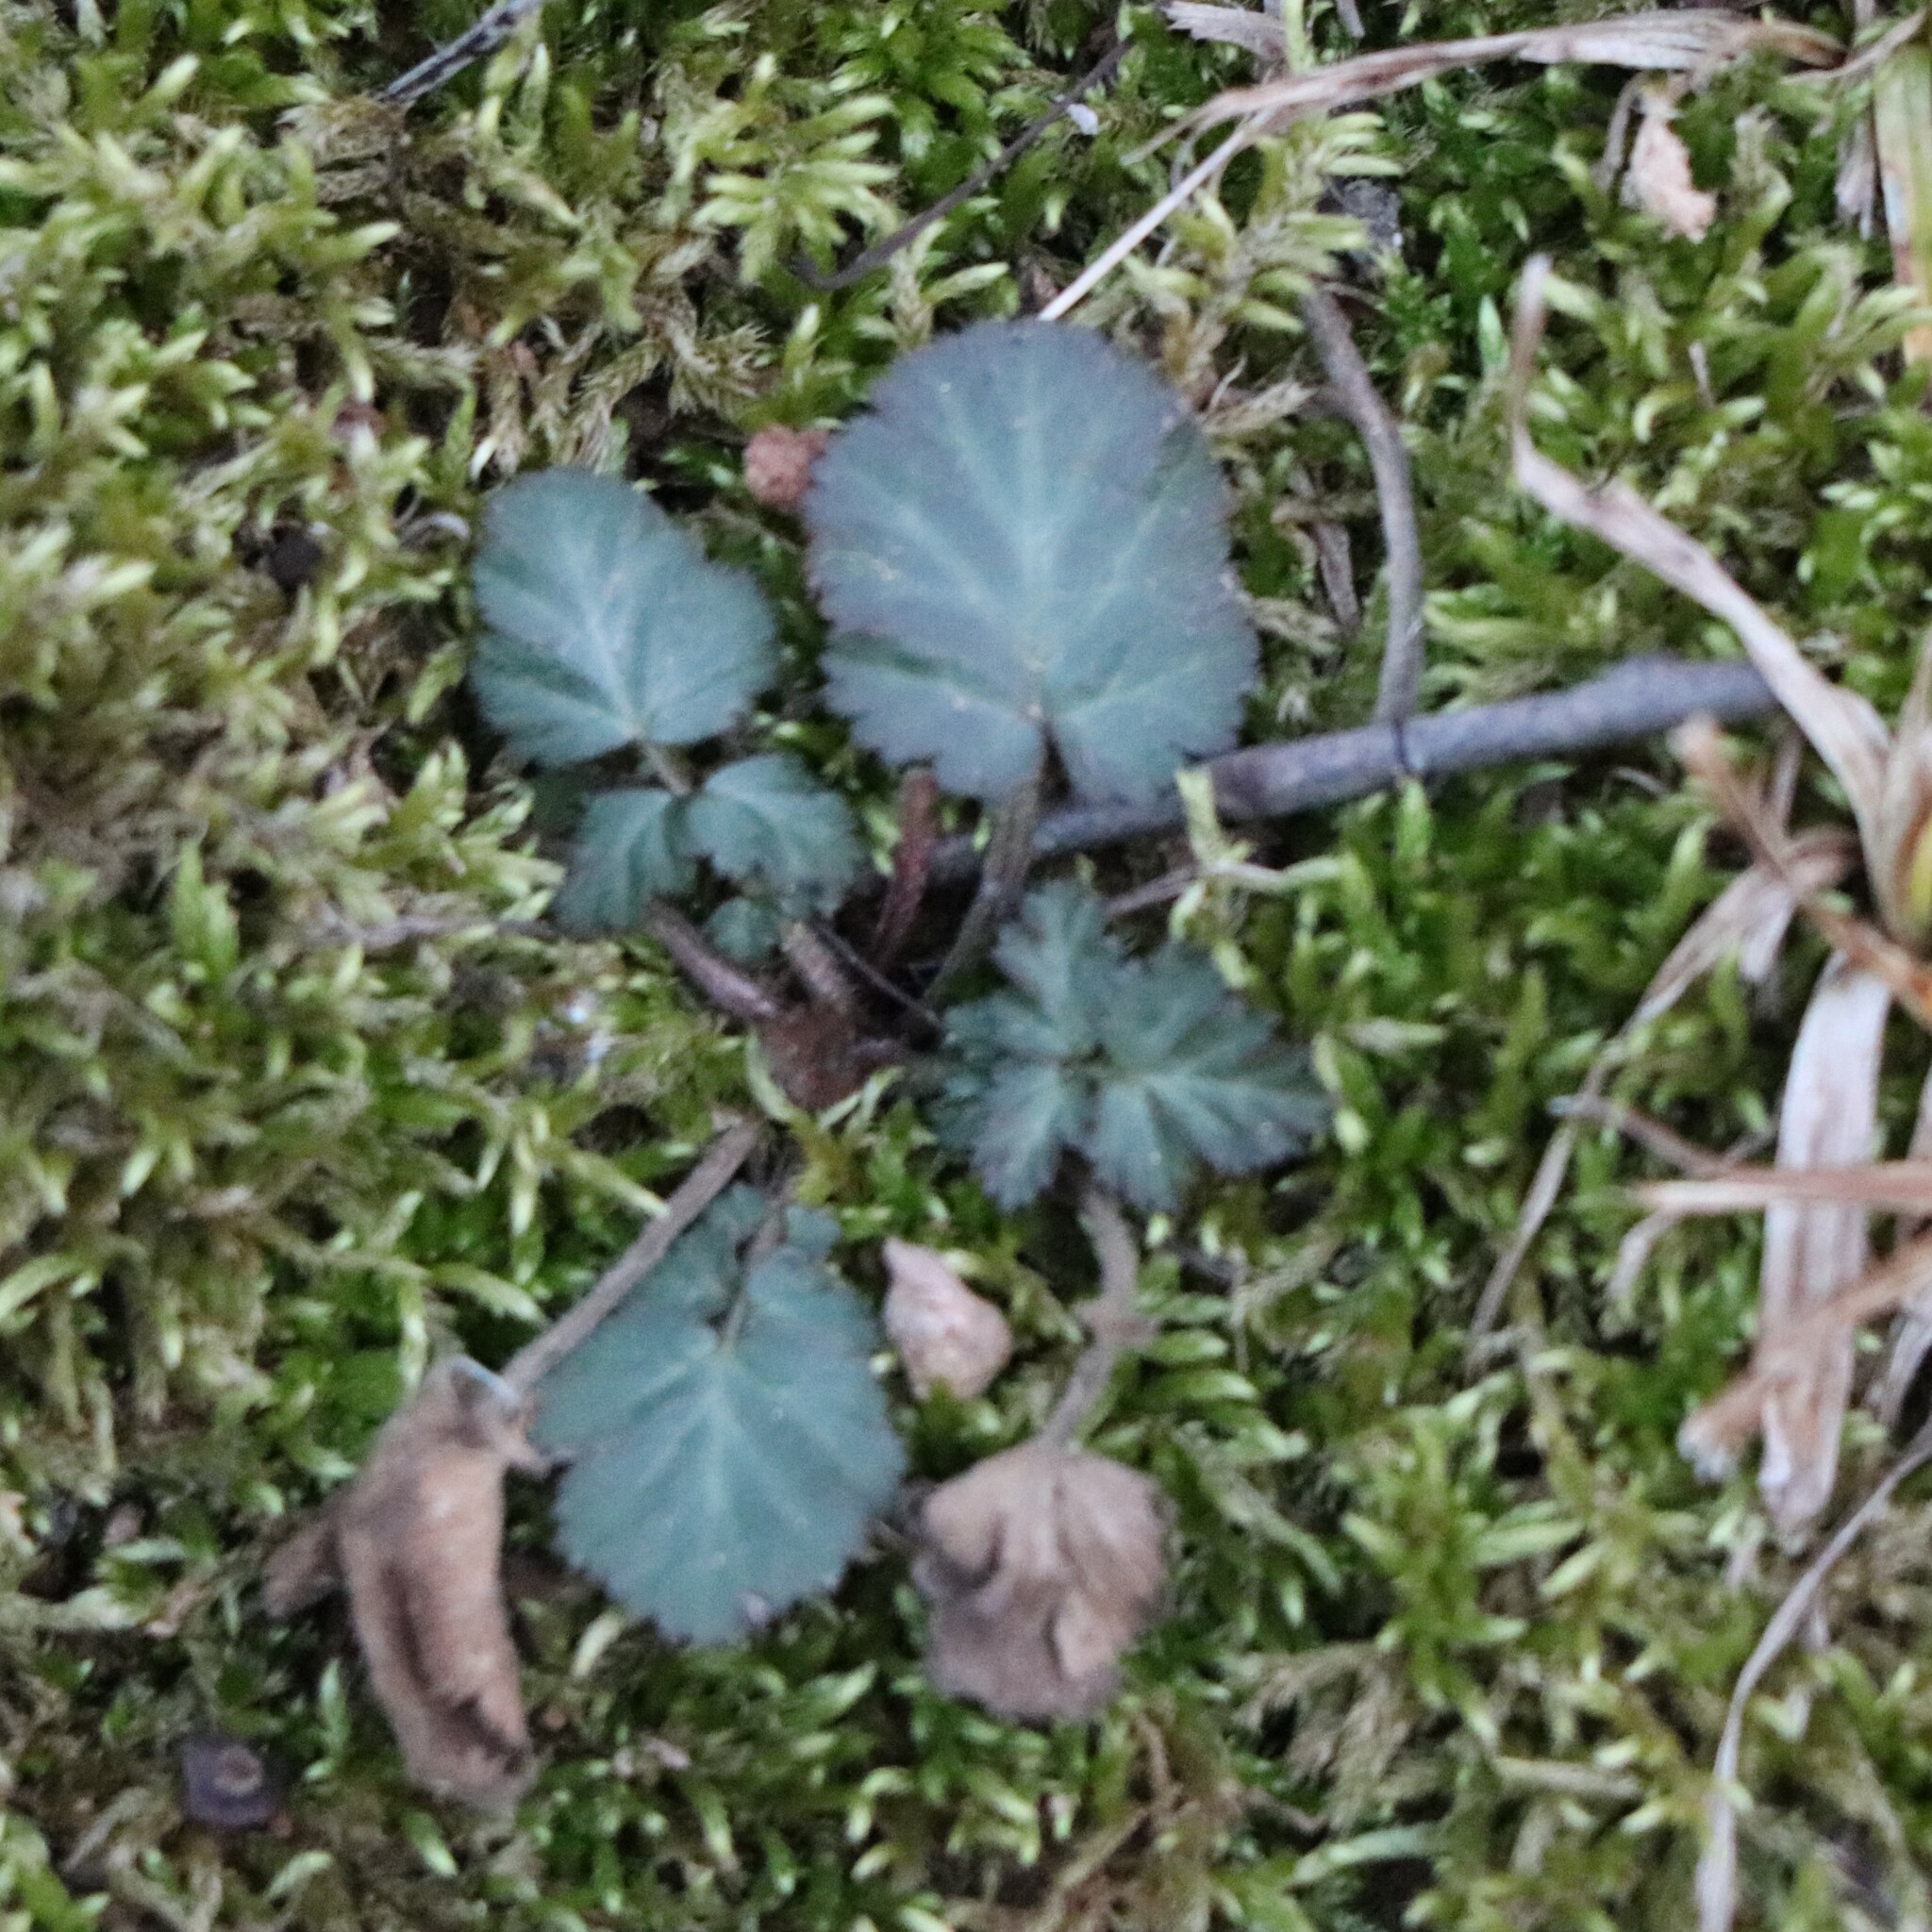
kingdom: Plantae
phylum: Tracheophyta
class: Magnoliopsida
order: Rosales
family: Rosaceae
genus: Geum
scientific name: Geum canadense
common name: White avens
